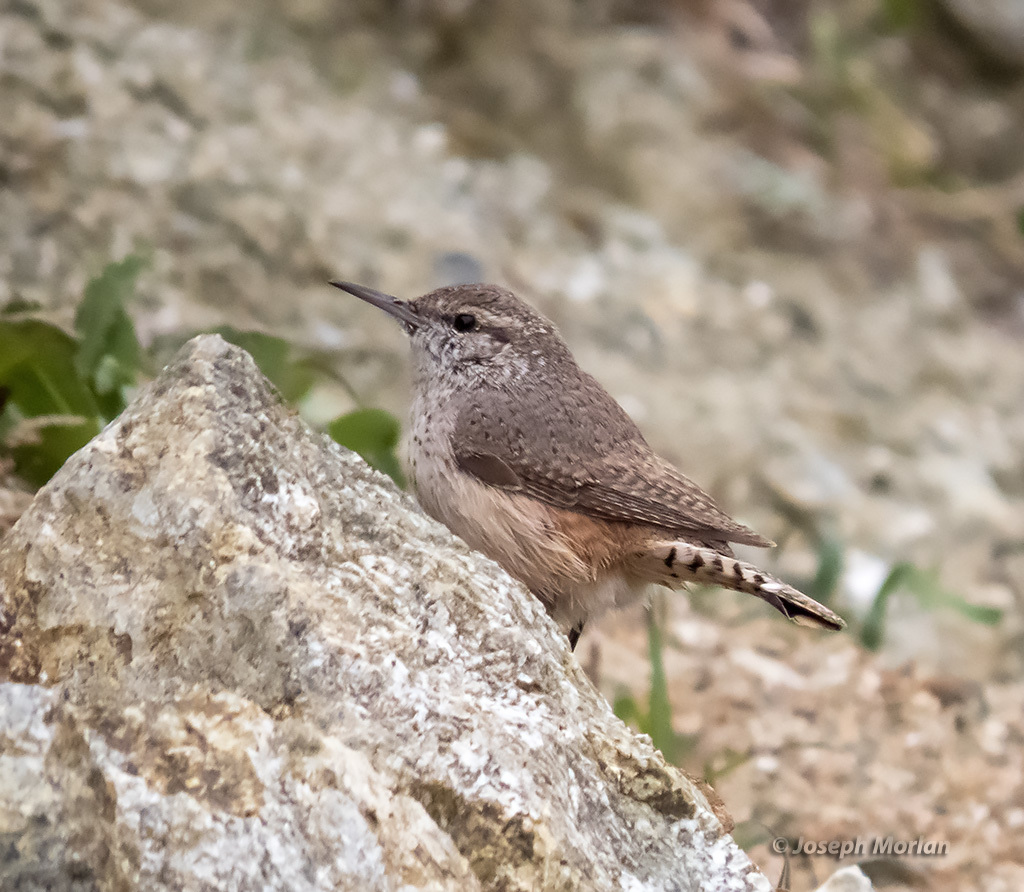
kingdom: Animalia
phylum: Chordata
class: Aves
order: Passeriformes
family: Troglodytidae
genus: Salpinctes
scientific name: Salpinctes obsoletus
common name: Rock wren
